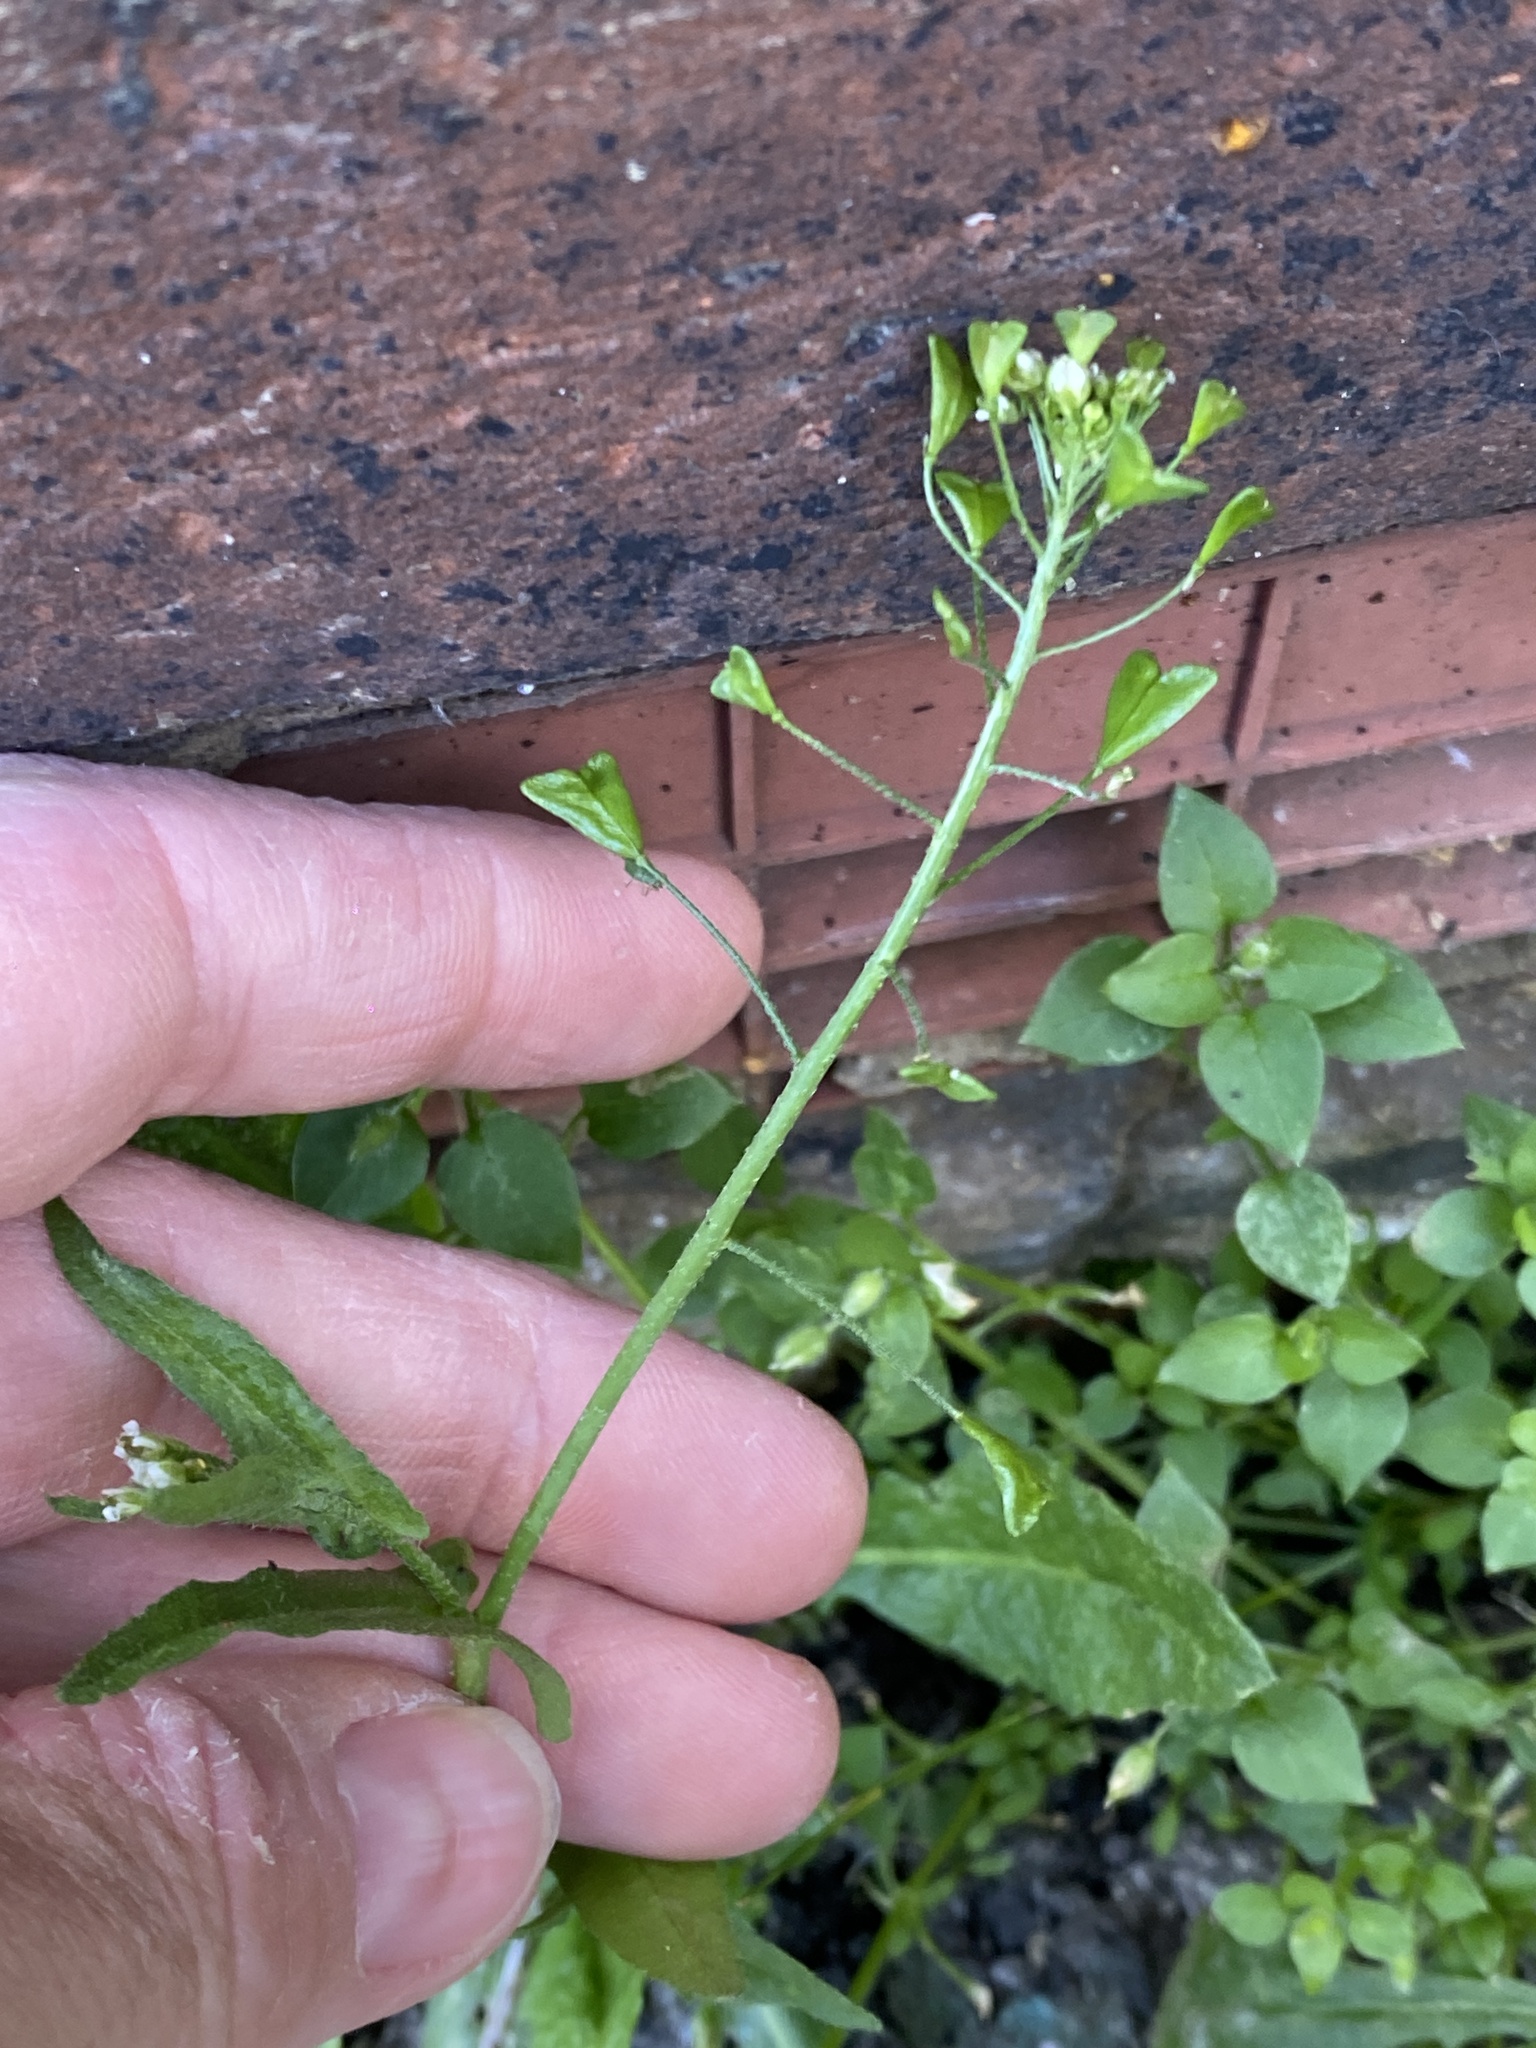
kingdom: Plantae
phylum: Tracheophyta
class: Magnoliopsida
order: Brassicales
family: Brassicaceae
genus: Capsella
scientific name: Capsella bursa-pastoris
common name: Shepherd's purse
